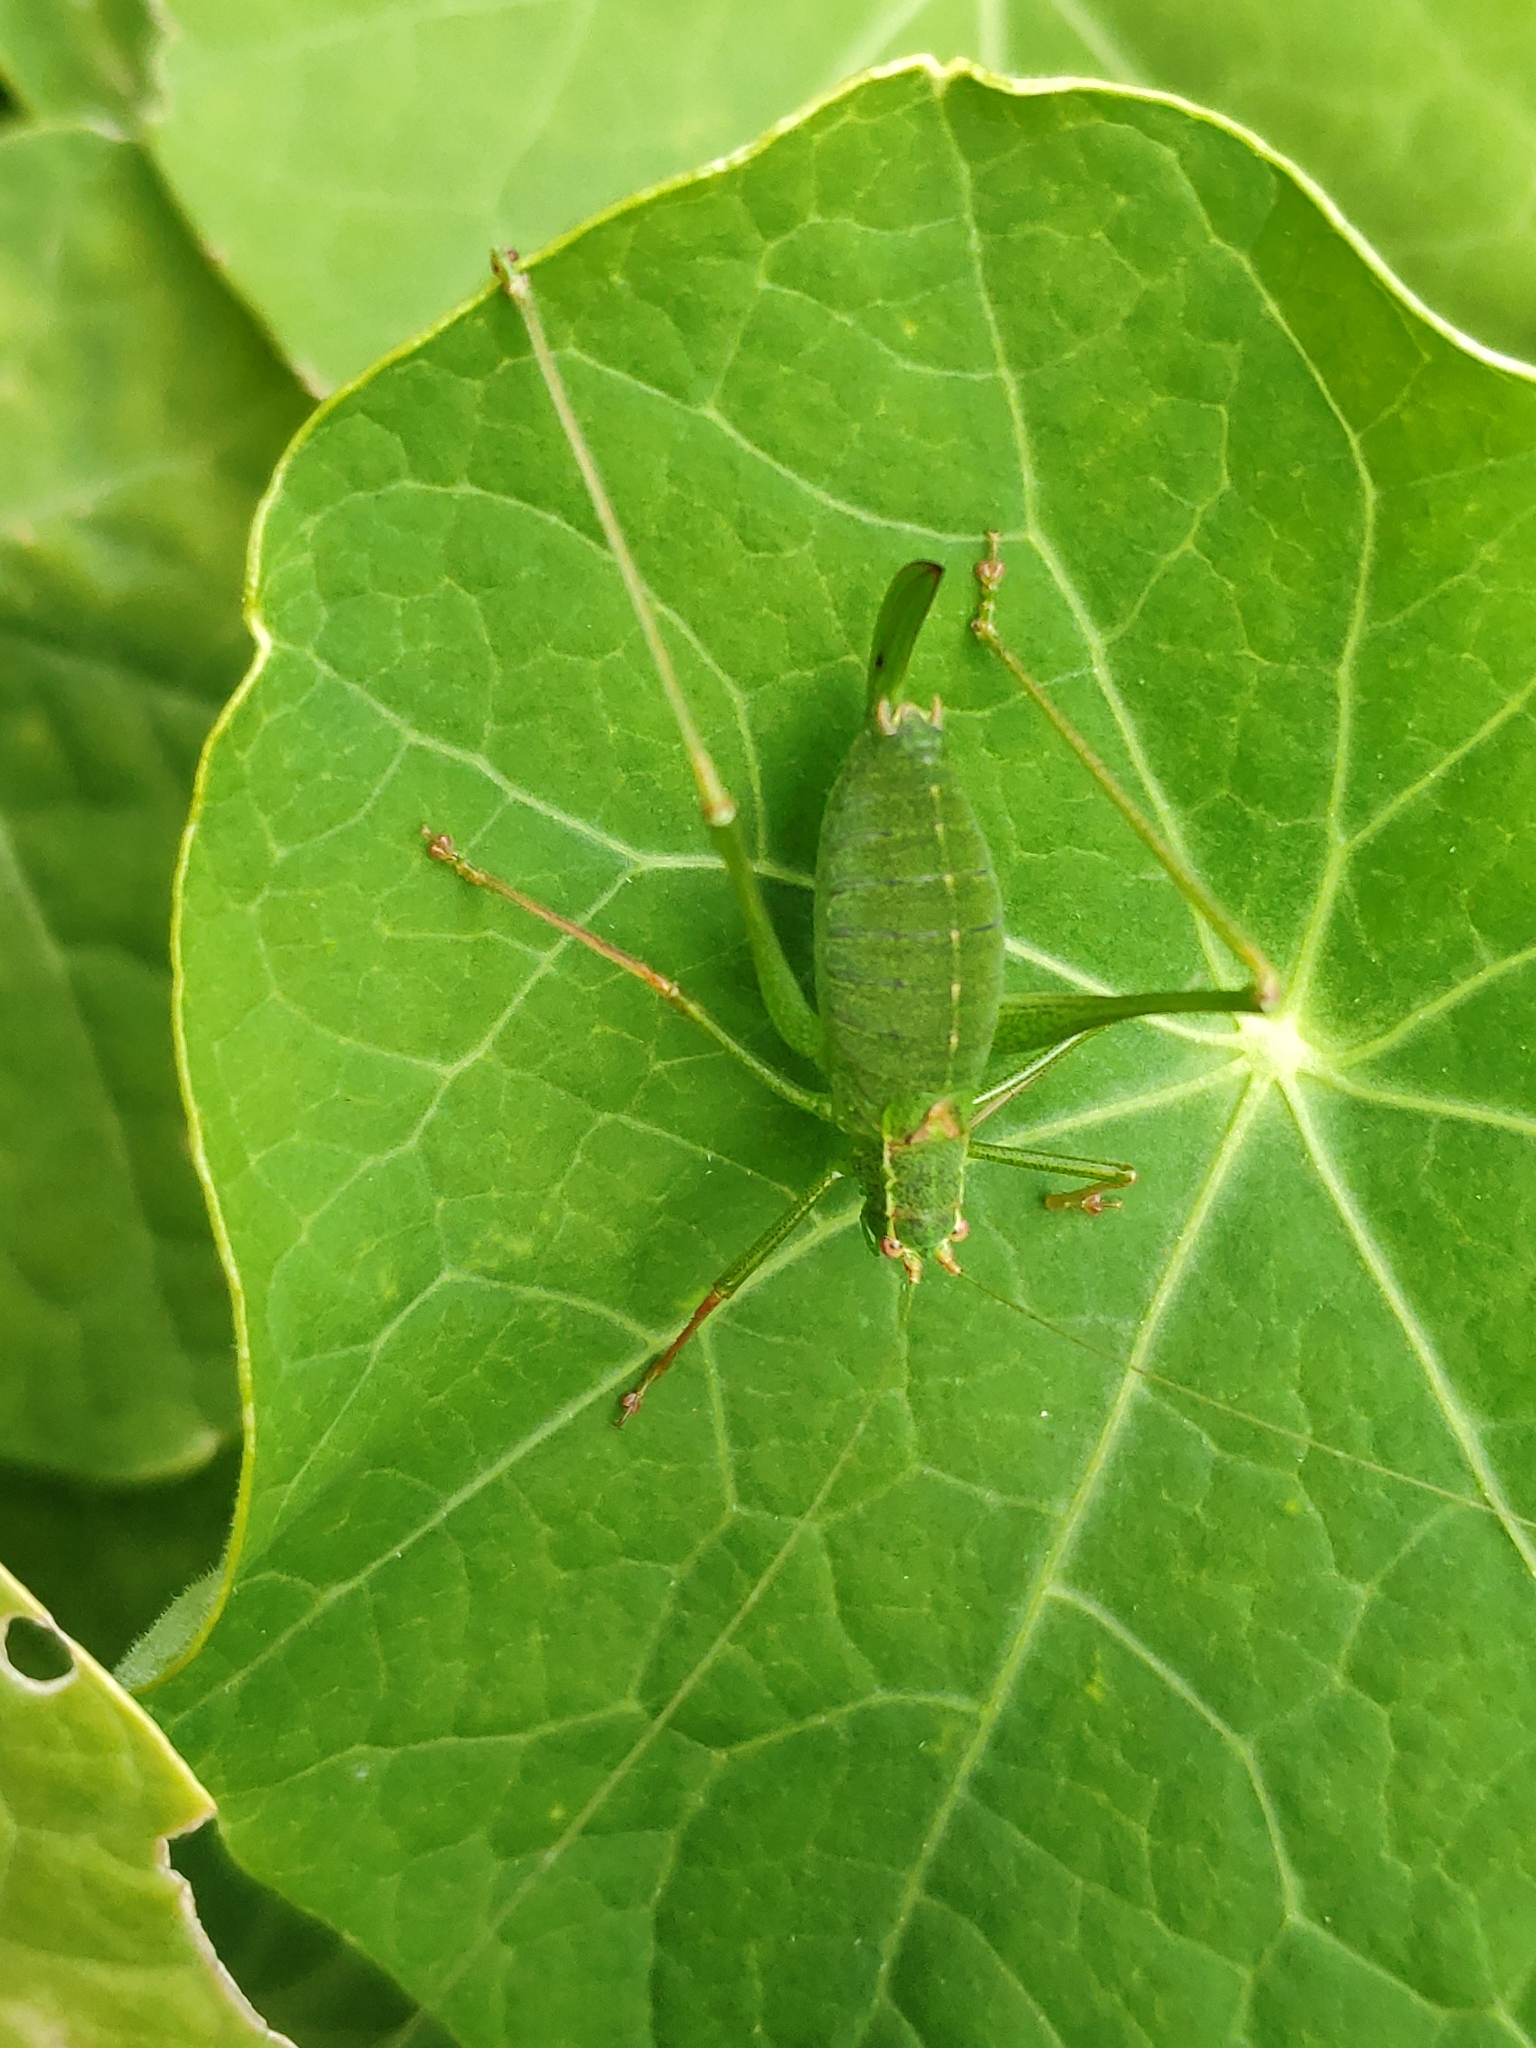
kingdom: Animalia
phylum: Arthropoda
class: Insecta
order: Orthoptera
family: Tettigoniidae
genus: Leptophyes
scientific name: Leptophyes punctatissima
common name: Speckled bush-cricket
